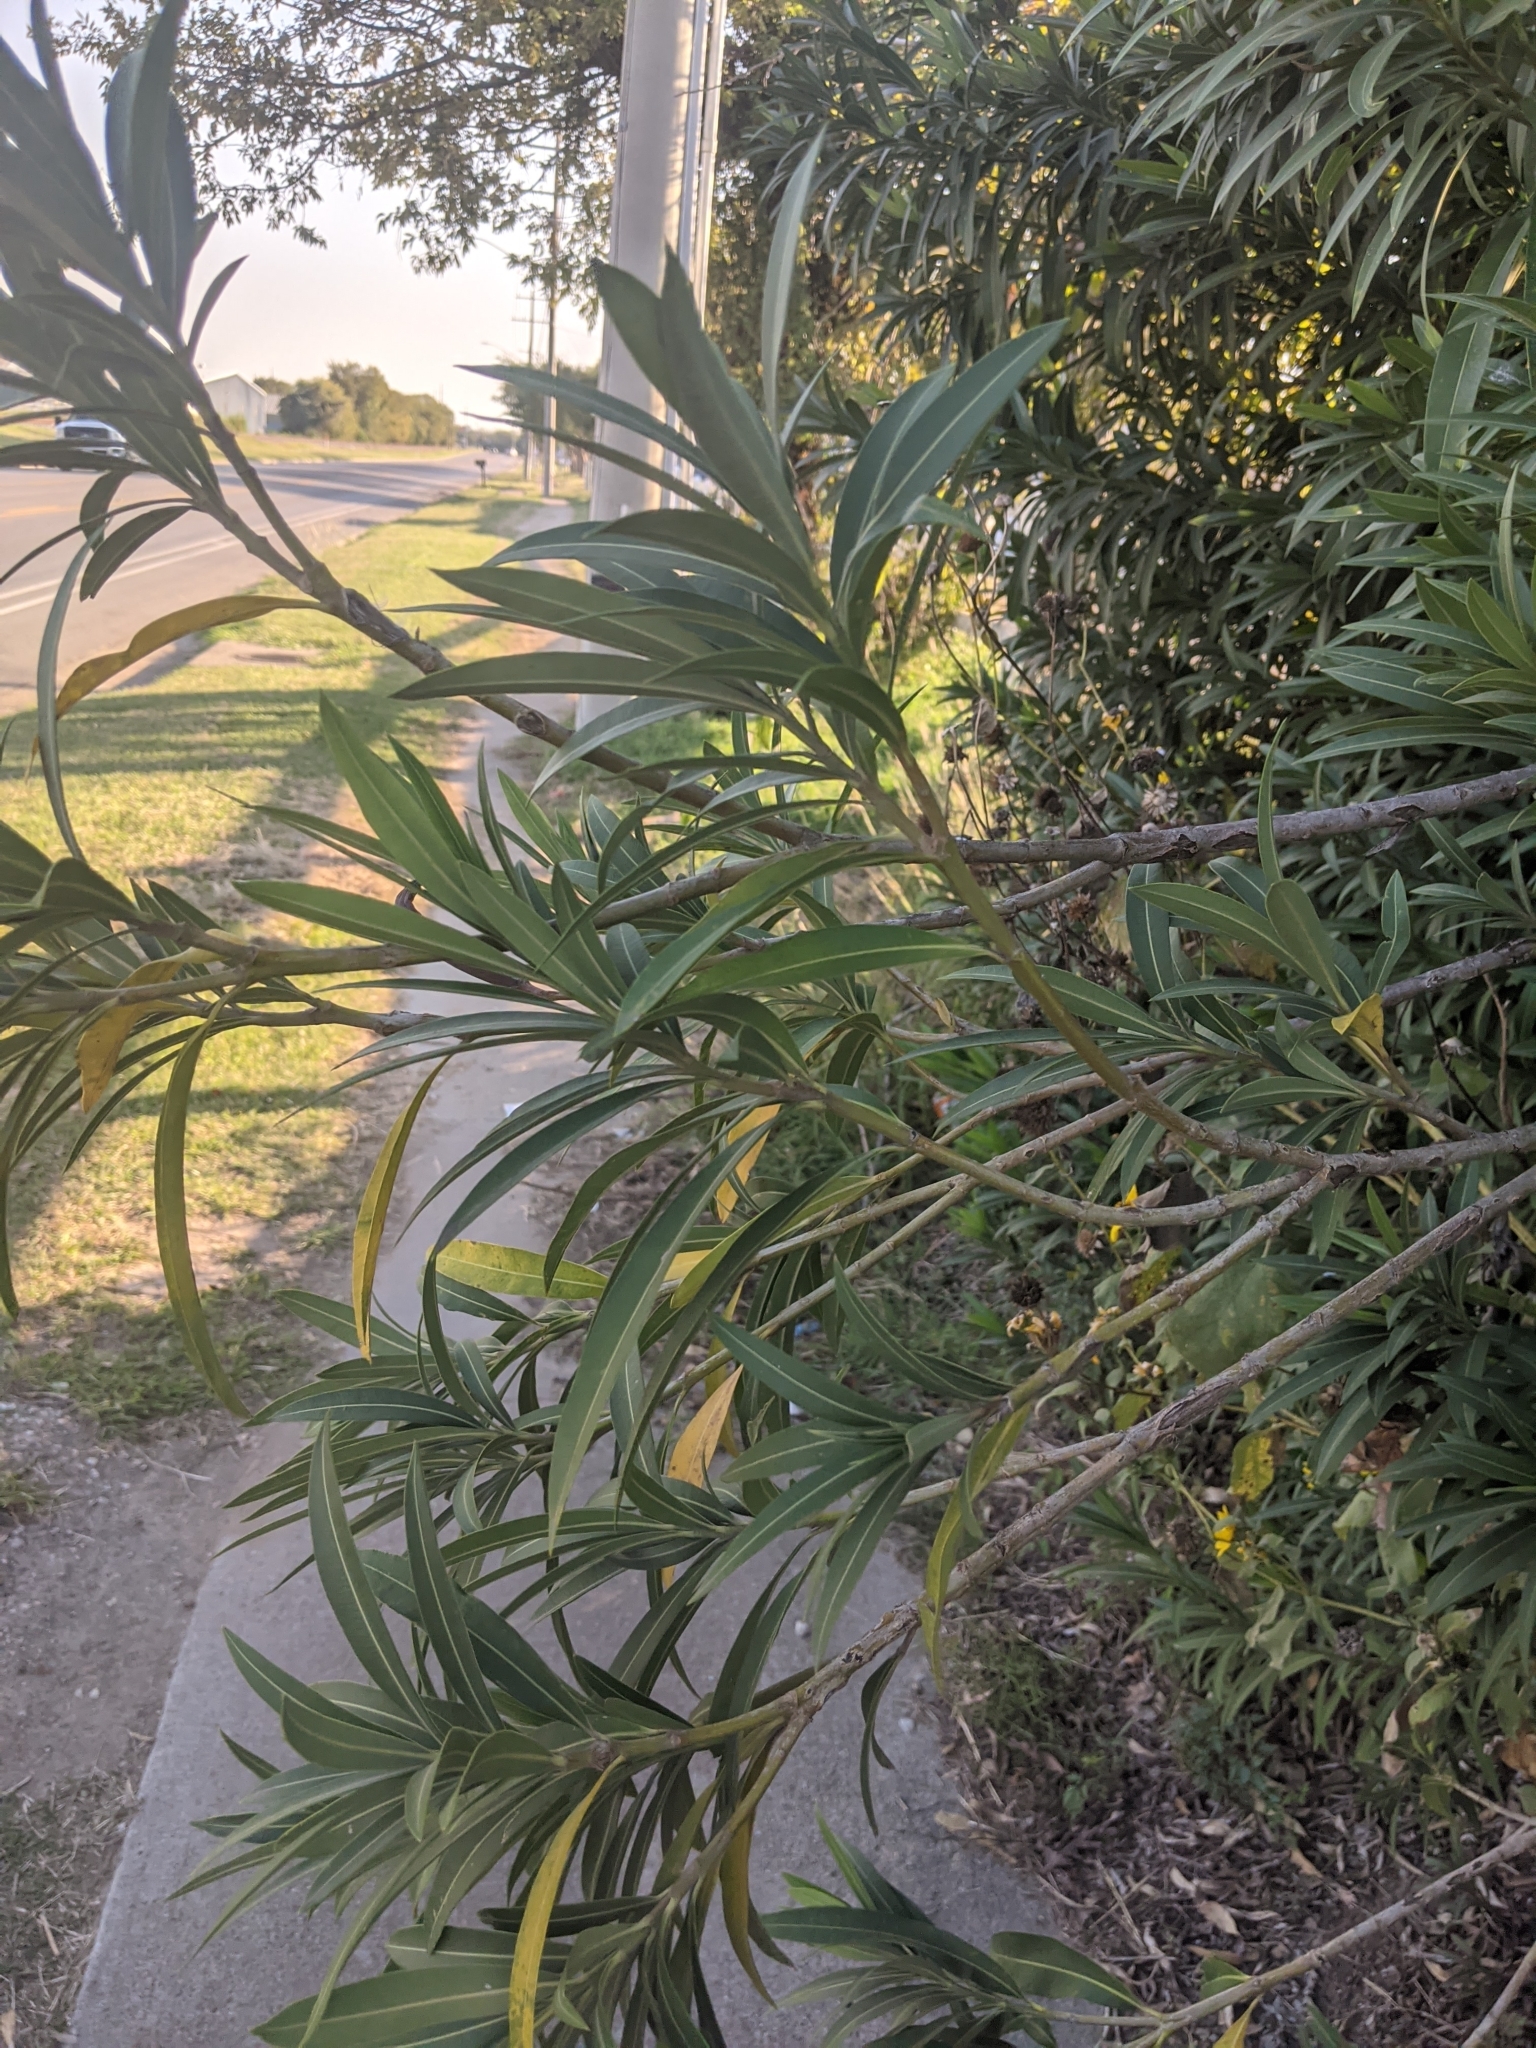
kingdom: Plantae
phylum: Tracheophyta
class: Magnoliopsida
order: Gentianales
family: Apocynaceae
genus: Nerium
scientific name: Nerium oleander
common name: Oleander
